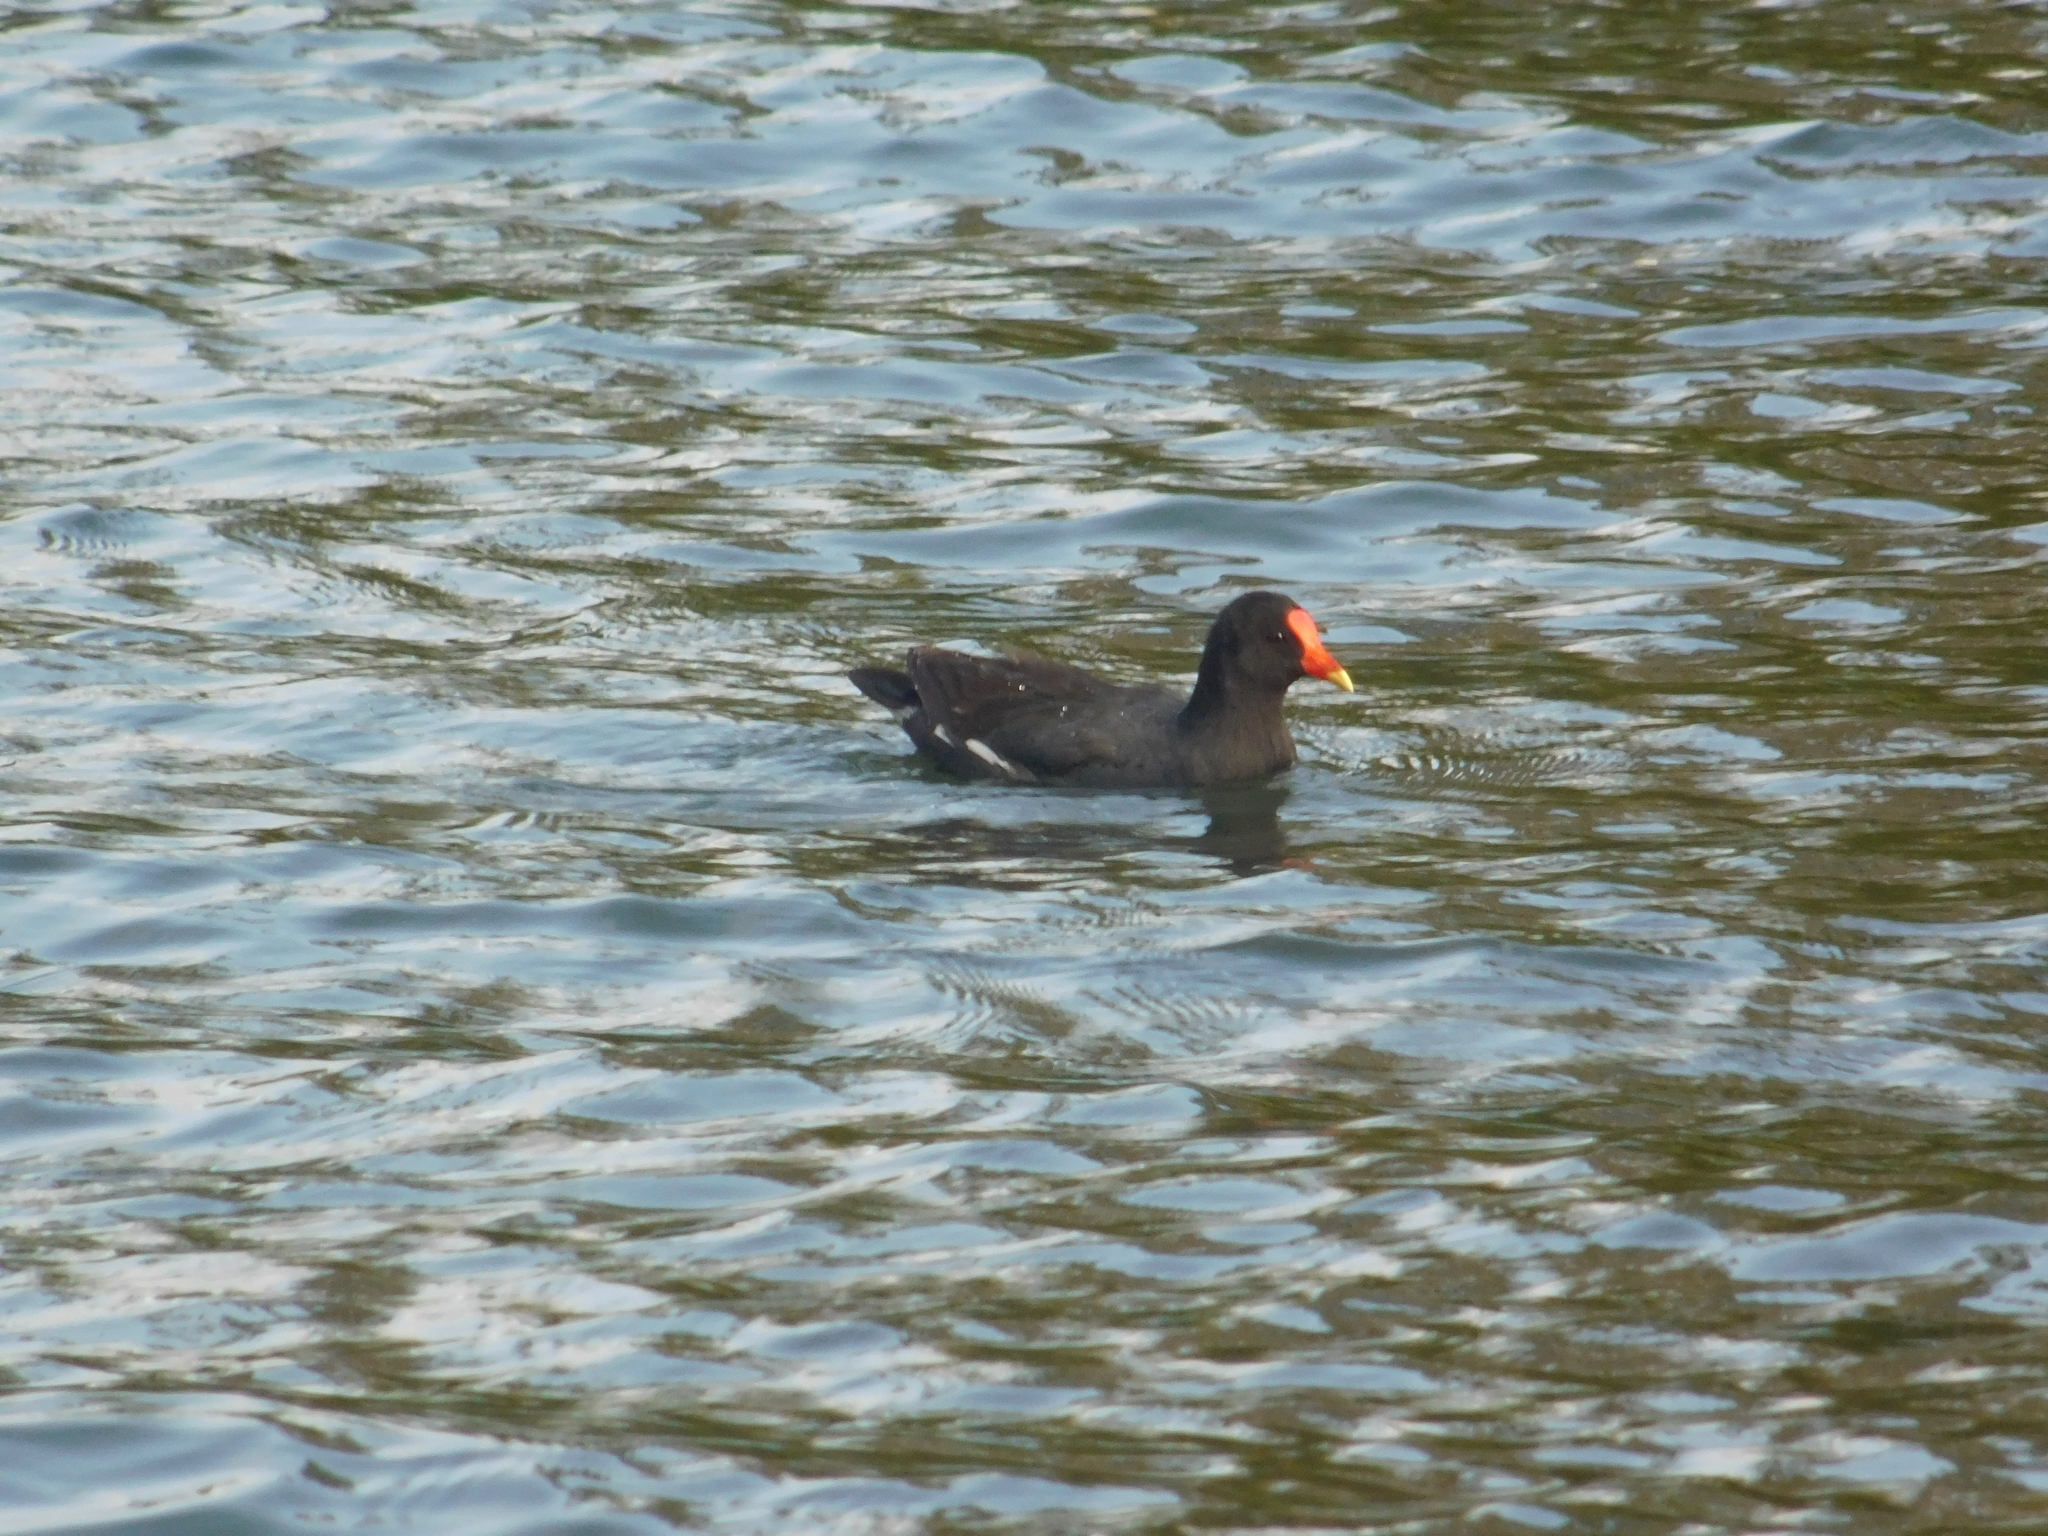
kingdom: Animalia
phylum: Chordata
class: Aves
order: Gruiformes
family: Rallidae
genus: Gallinula
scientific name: Gallinula chloropus
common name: Common moorhen
